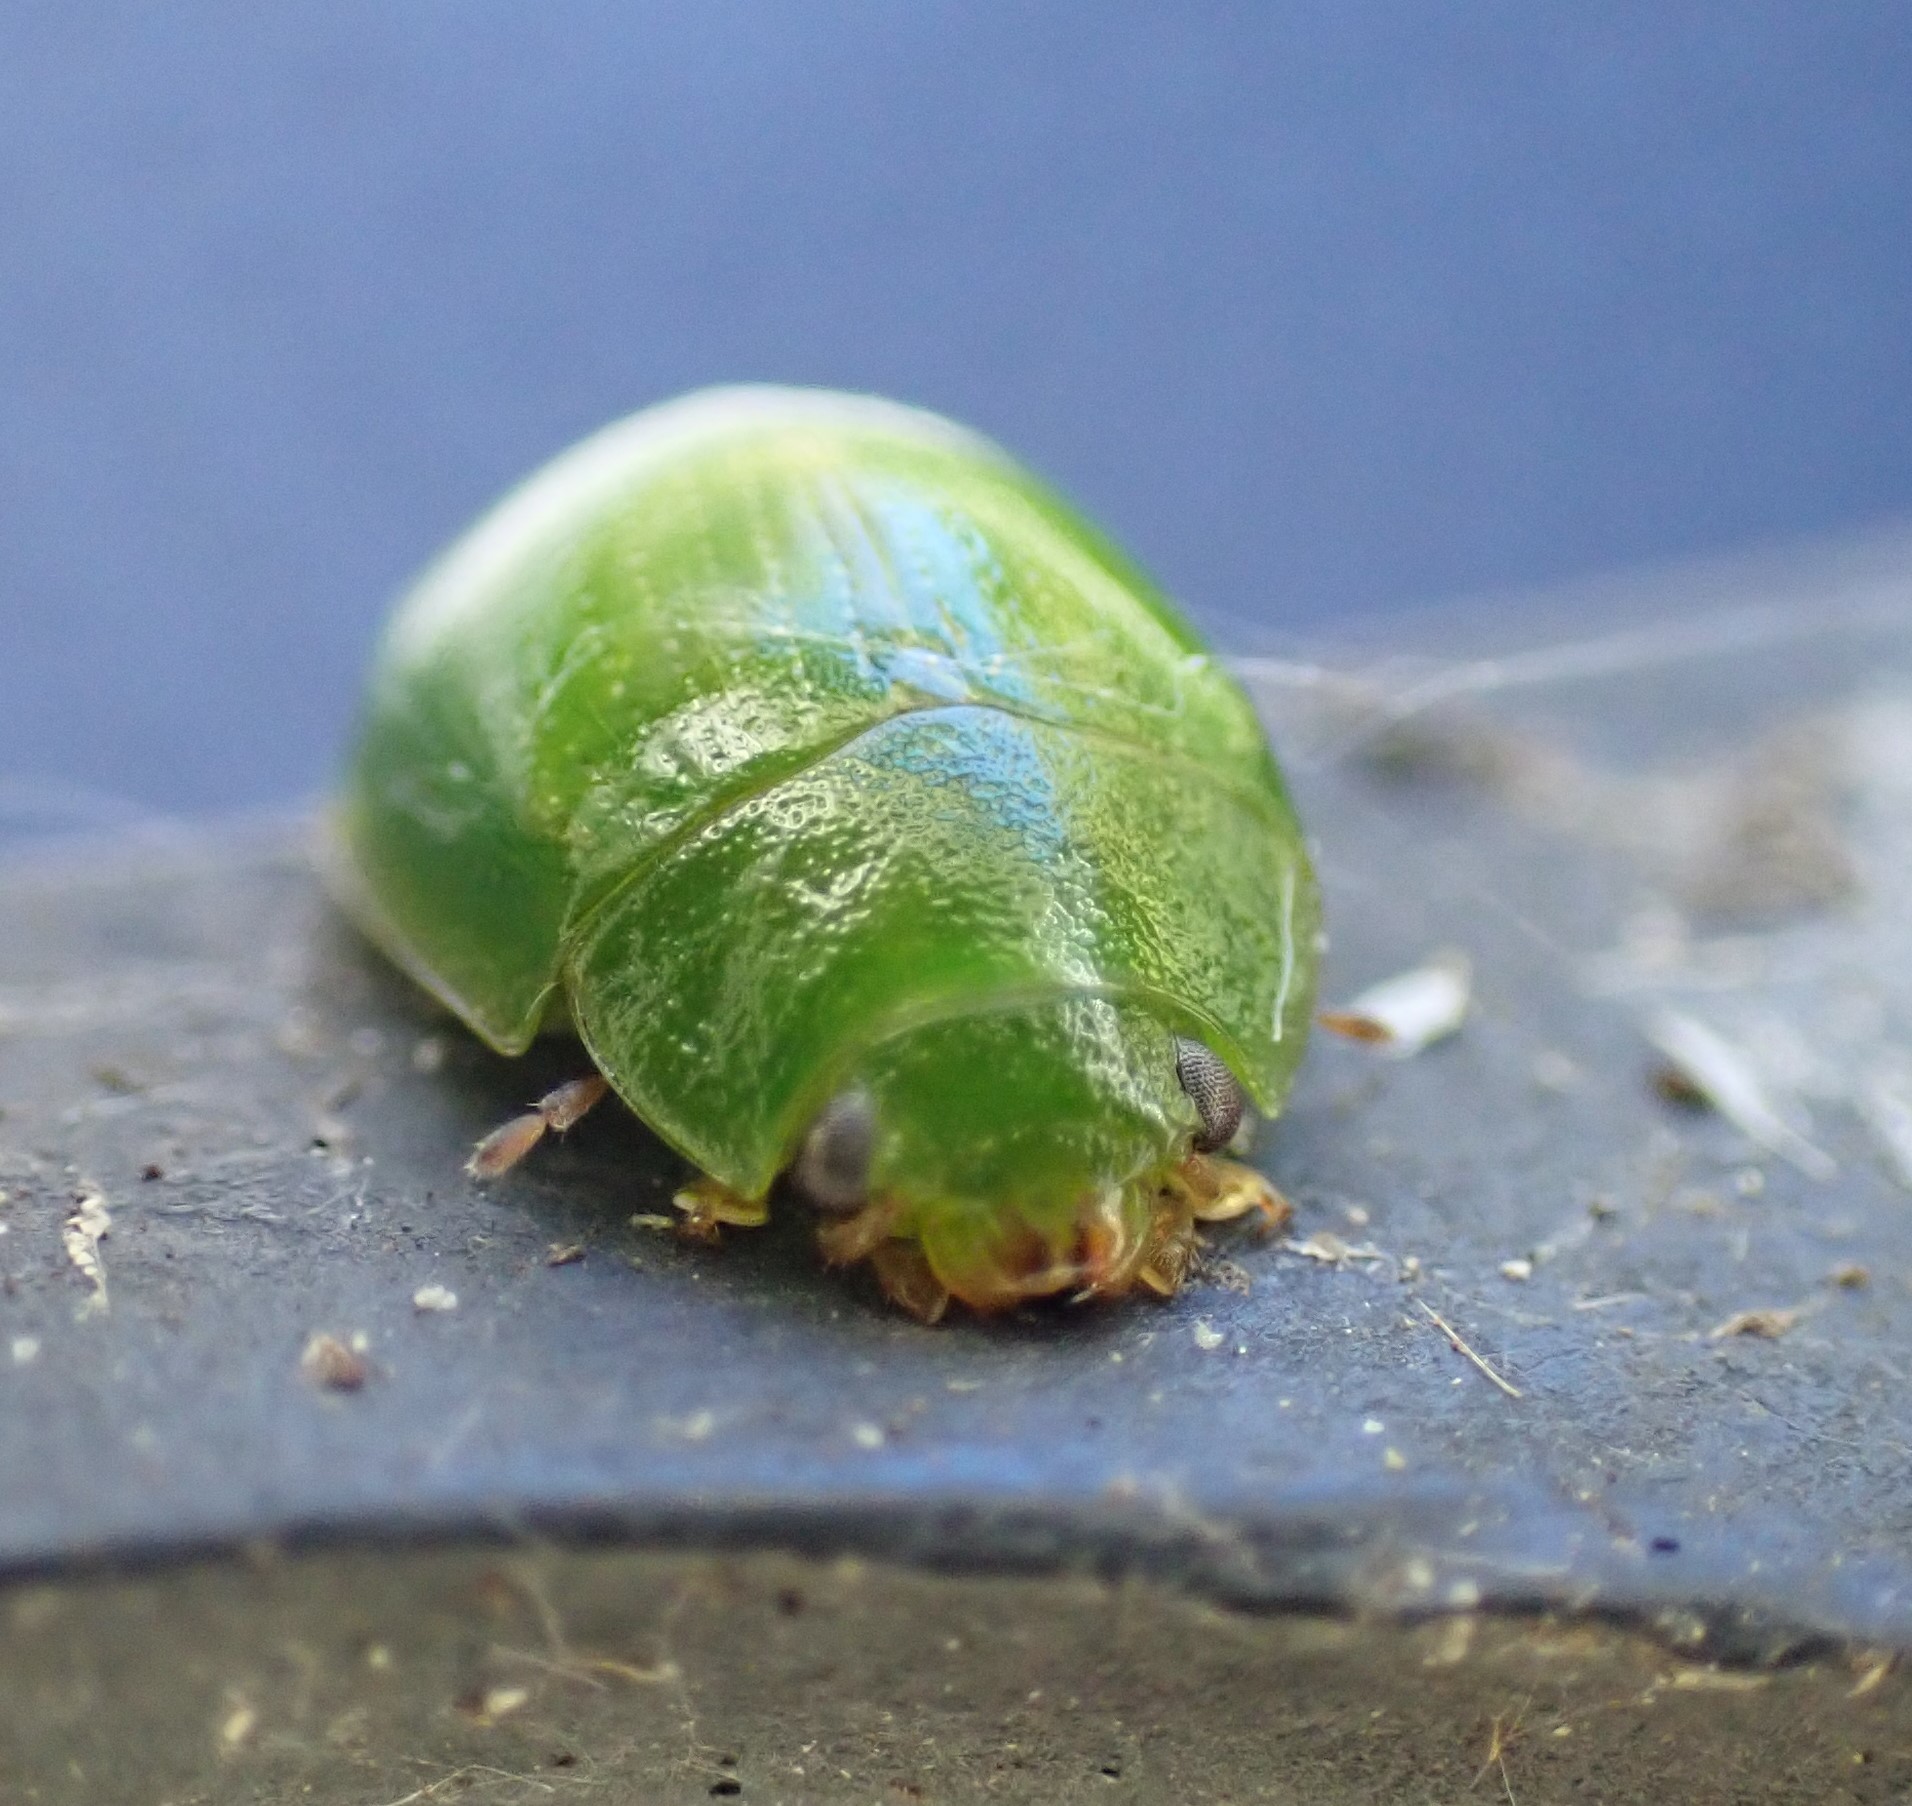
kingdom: Animalia
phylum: Arthropoda
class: Insecta
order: Coleoptera
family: Chrysomelidae
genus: Paropsides
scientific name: Paropsides
